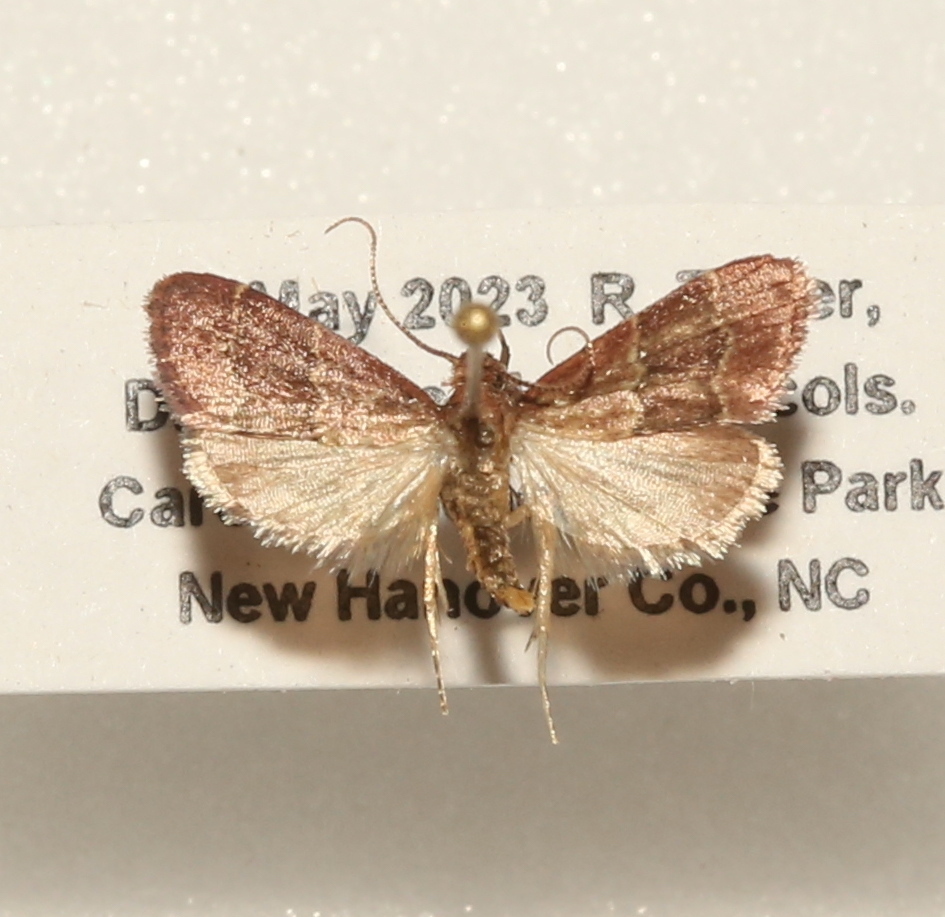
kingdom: Animalia
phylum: Arthropoda
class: Insecta
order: Lepidoptera
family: Pyralidae
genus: Arta
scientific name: Arta
